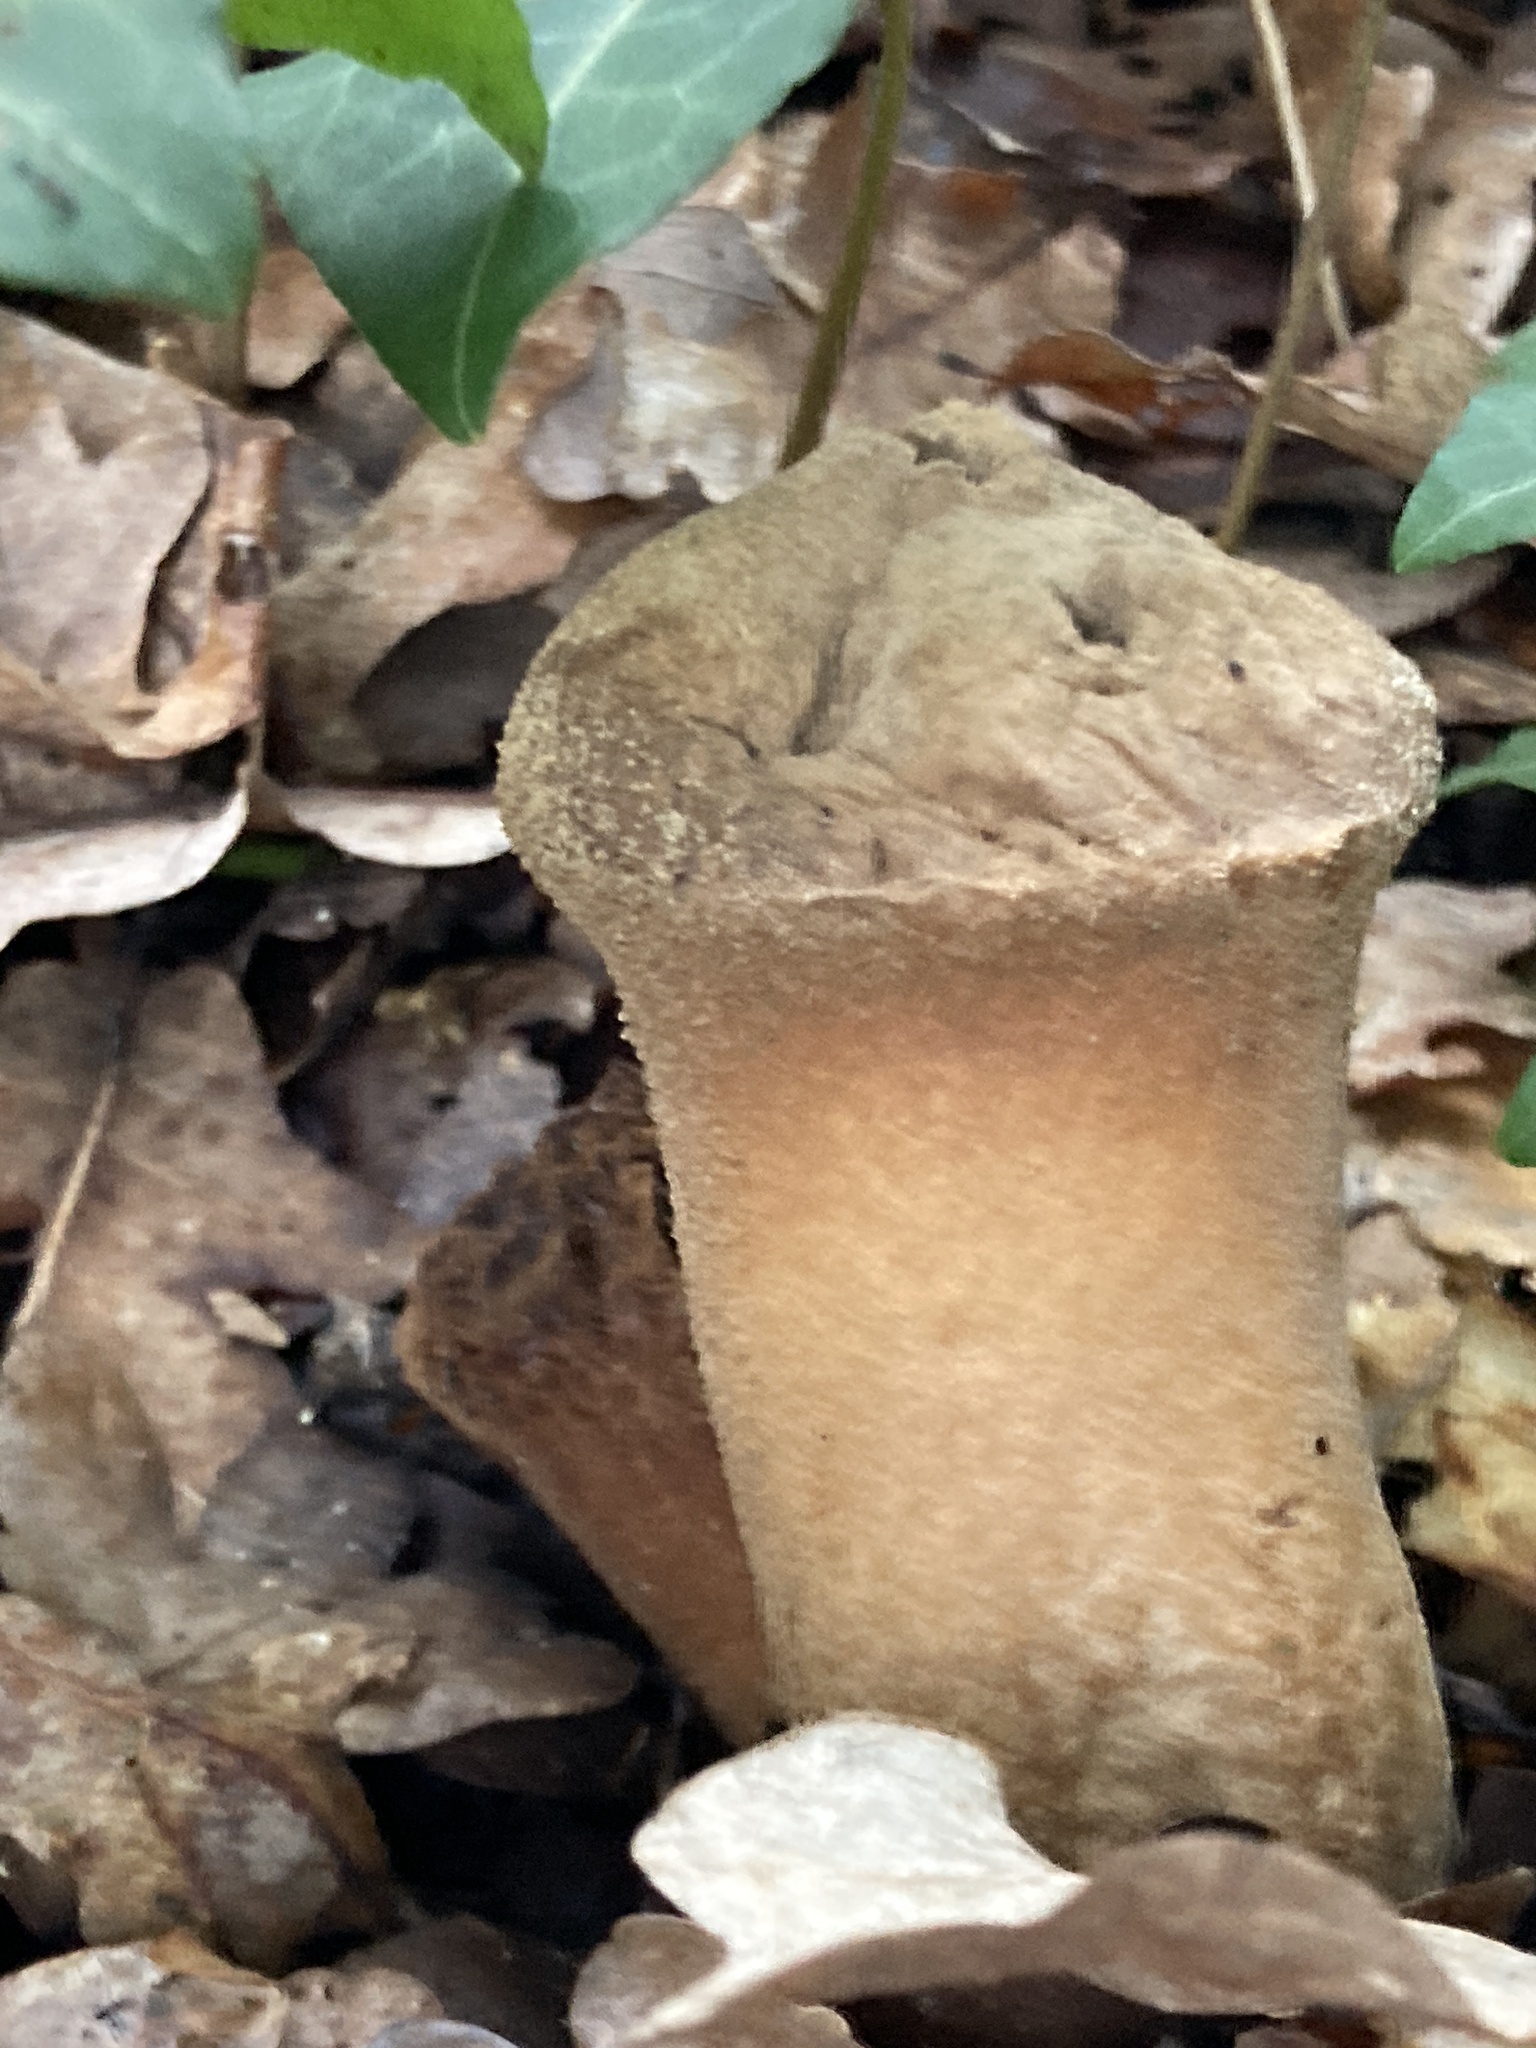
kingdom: Fungi
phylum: Basidiomycota
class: Agaricomycetes
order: Agaricales
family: Lycoperdaceae
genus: Lycoperdon
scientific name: Lycoperdon excipuliforme
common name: Pestle puffball
